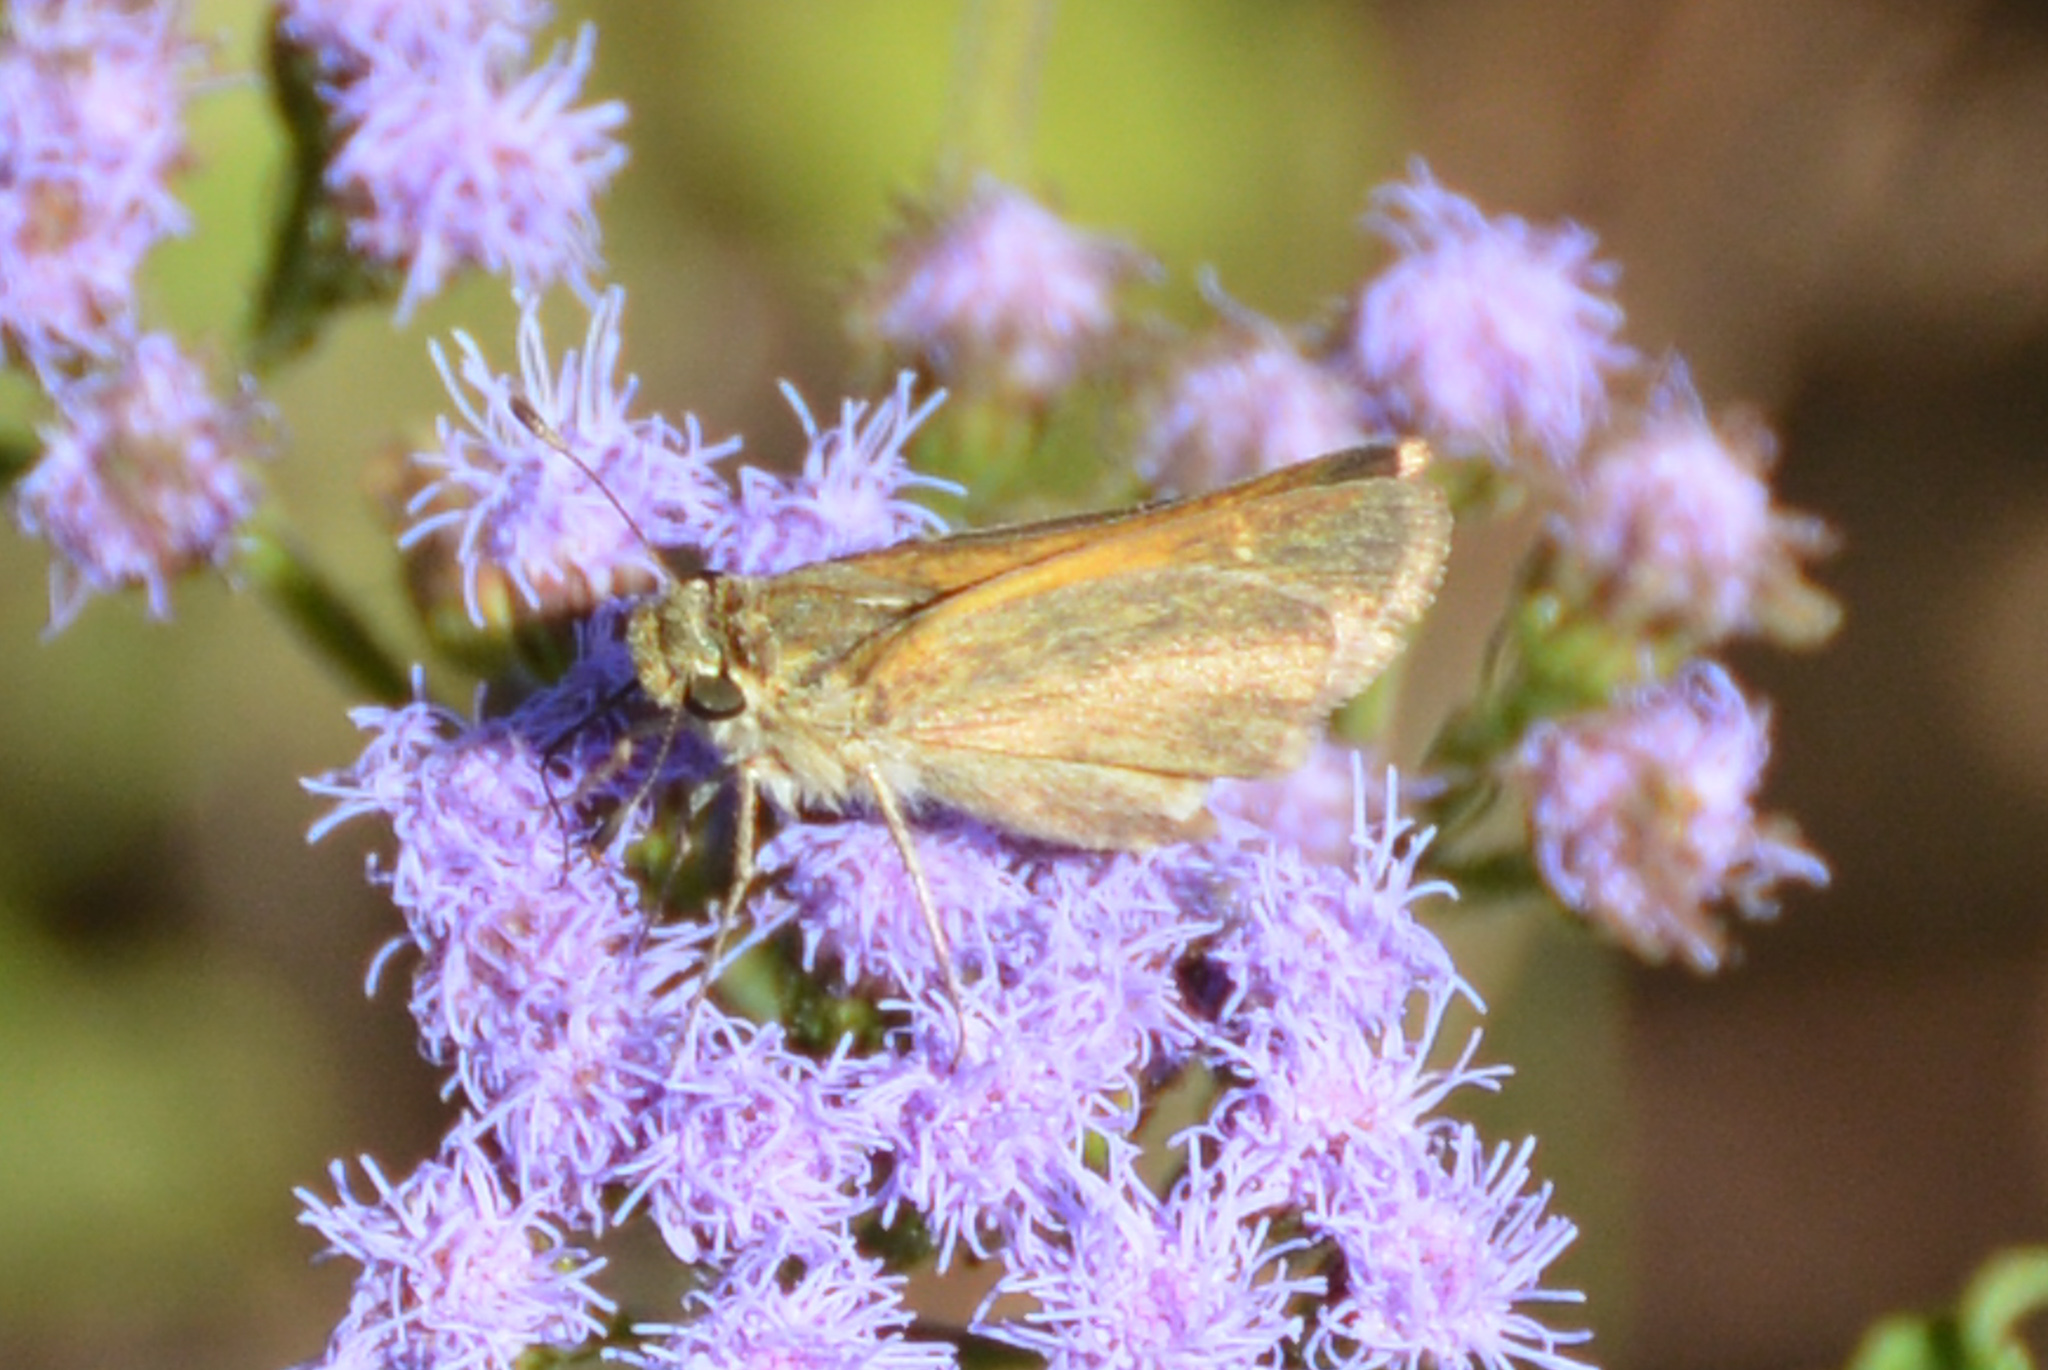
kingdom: Animalia
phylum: Arthropoda
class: Insecta
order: Lepidoptera
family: Hesperiidae
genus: Polites
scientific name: Polites themistocles
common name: Tawny-edged skipper
